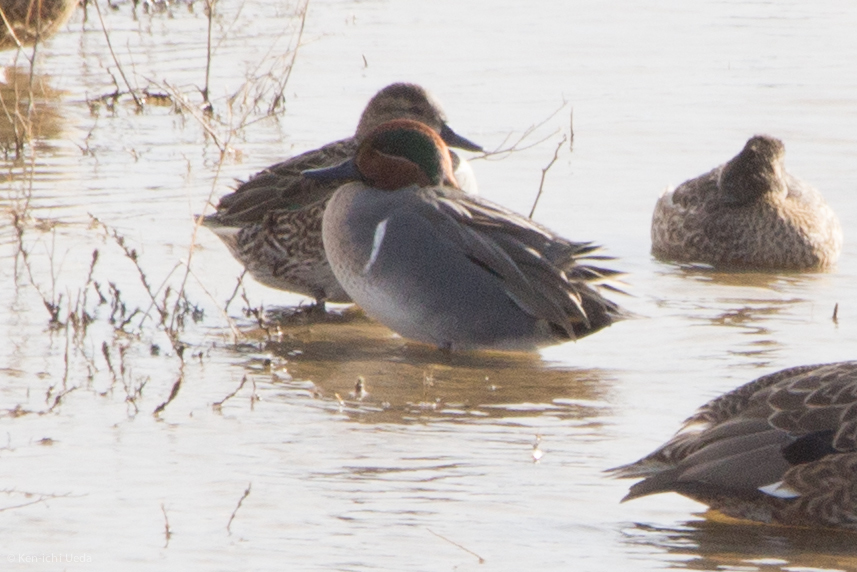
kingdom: Animalia
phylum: Chordata
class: Aves
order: Anseriformes
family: Anatidae
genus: Anas
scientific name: Anas crecca
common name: Eurasian teal
